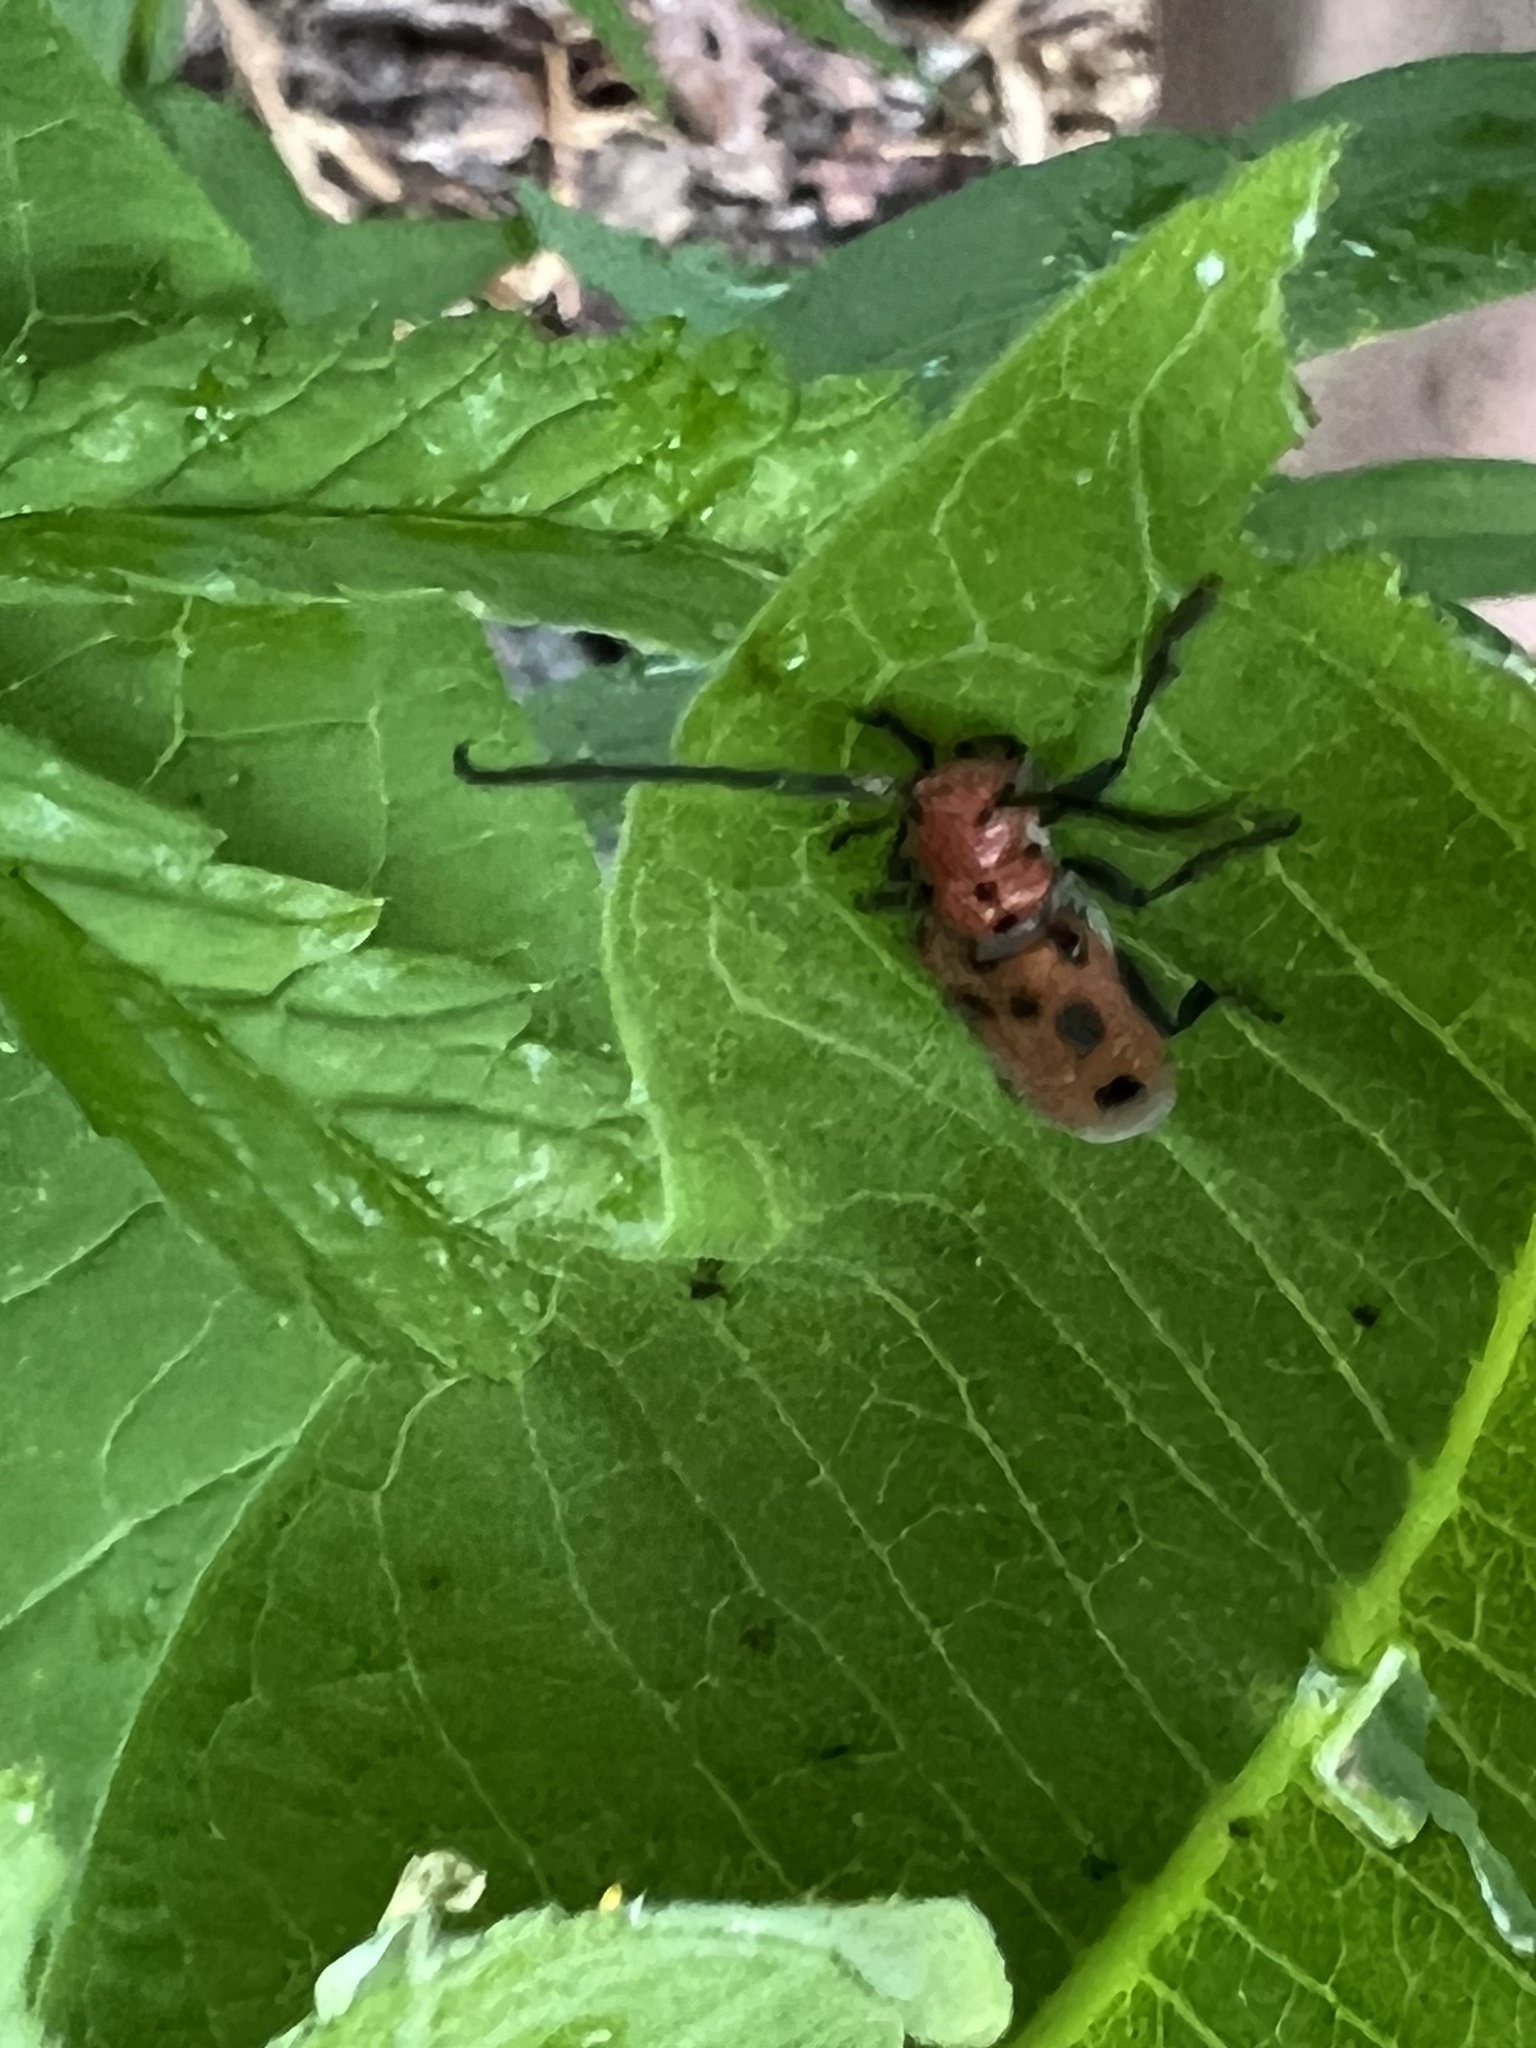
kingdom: Animalia
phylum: Arthropoda
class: Insecta
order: Coleoptera
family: Cerambycidae
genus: Tetraopes
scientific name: Tetraopes tetrophthalmus
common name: Red milkweed beetle
